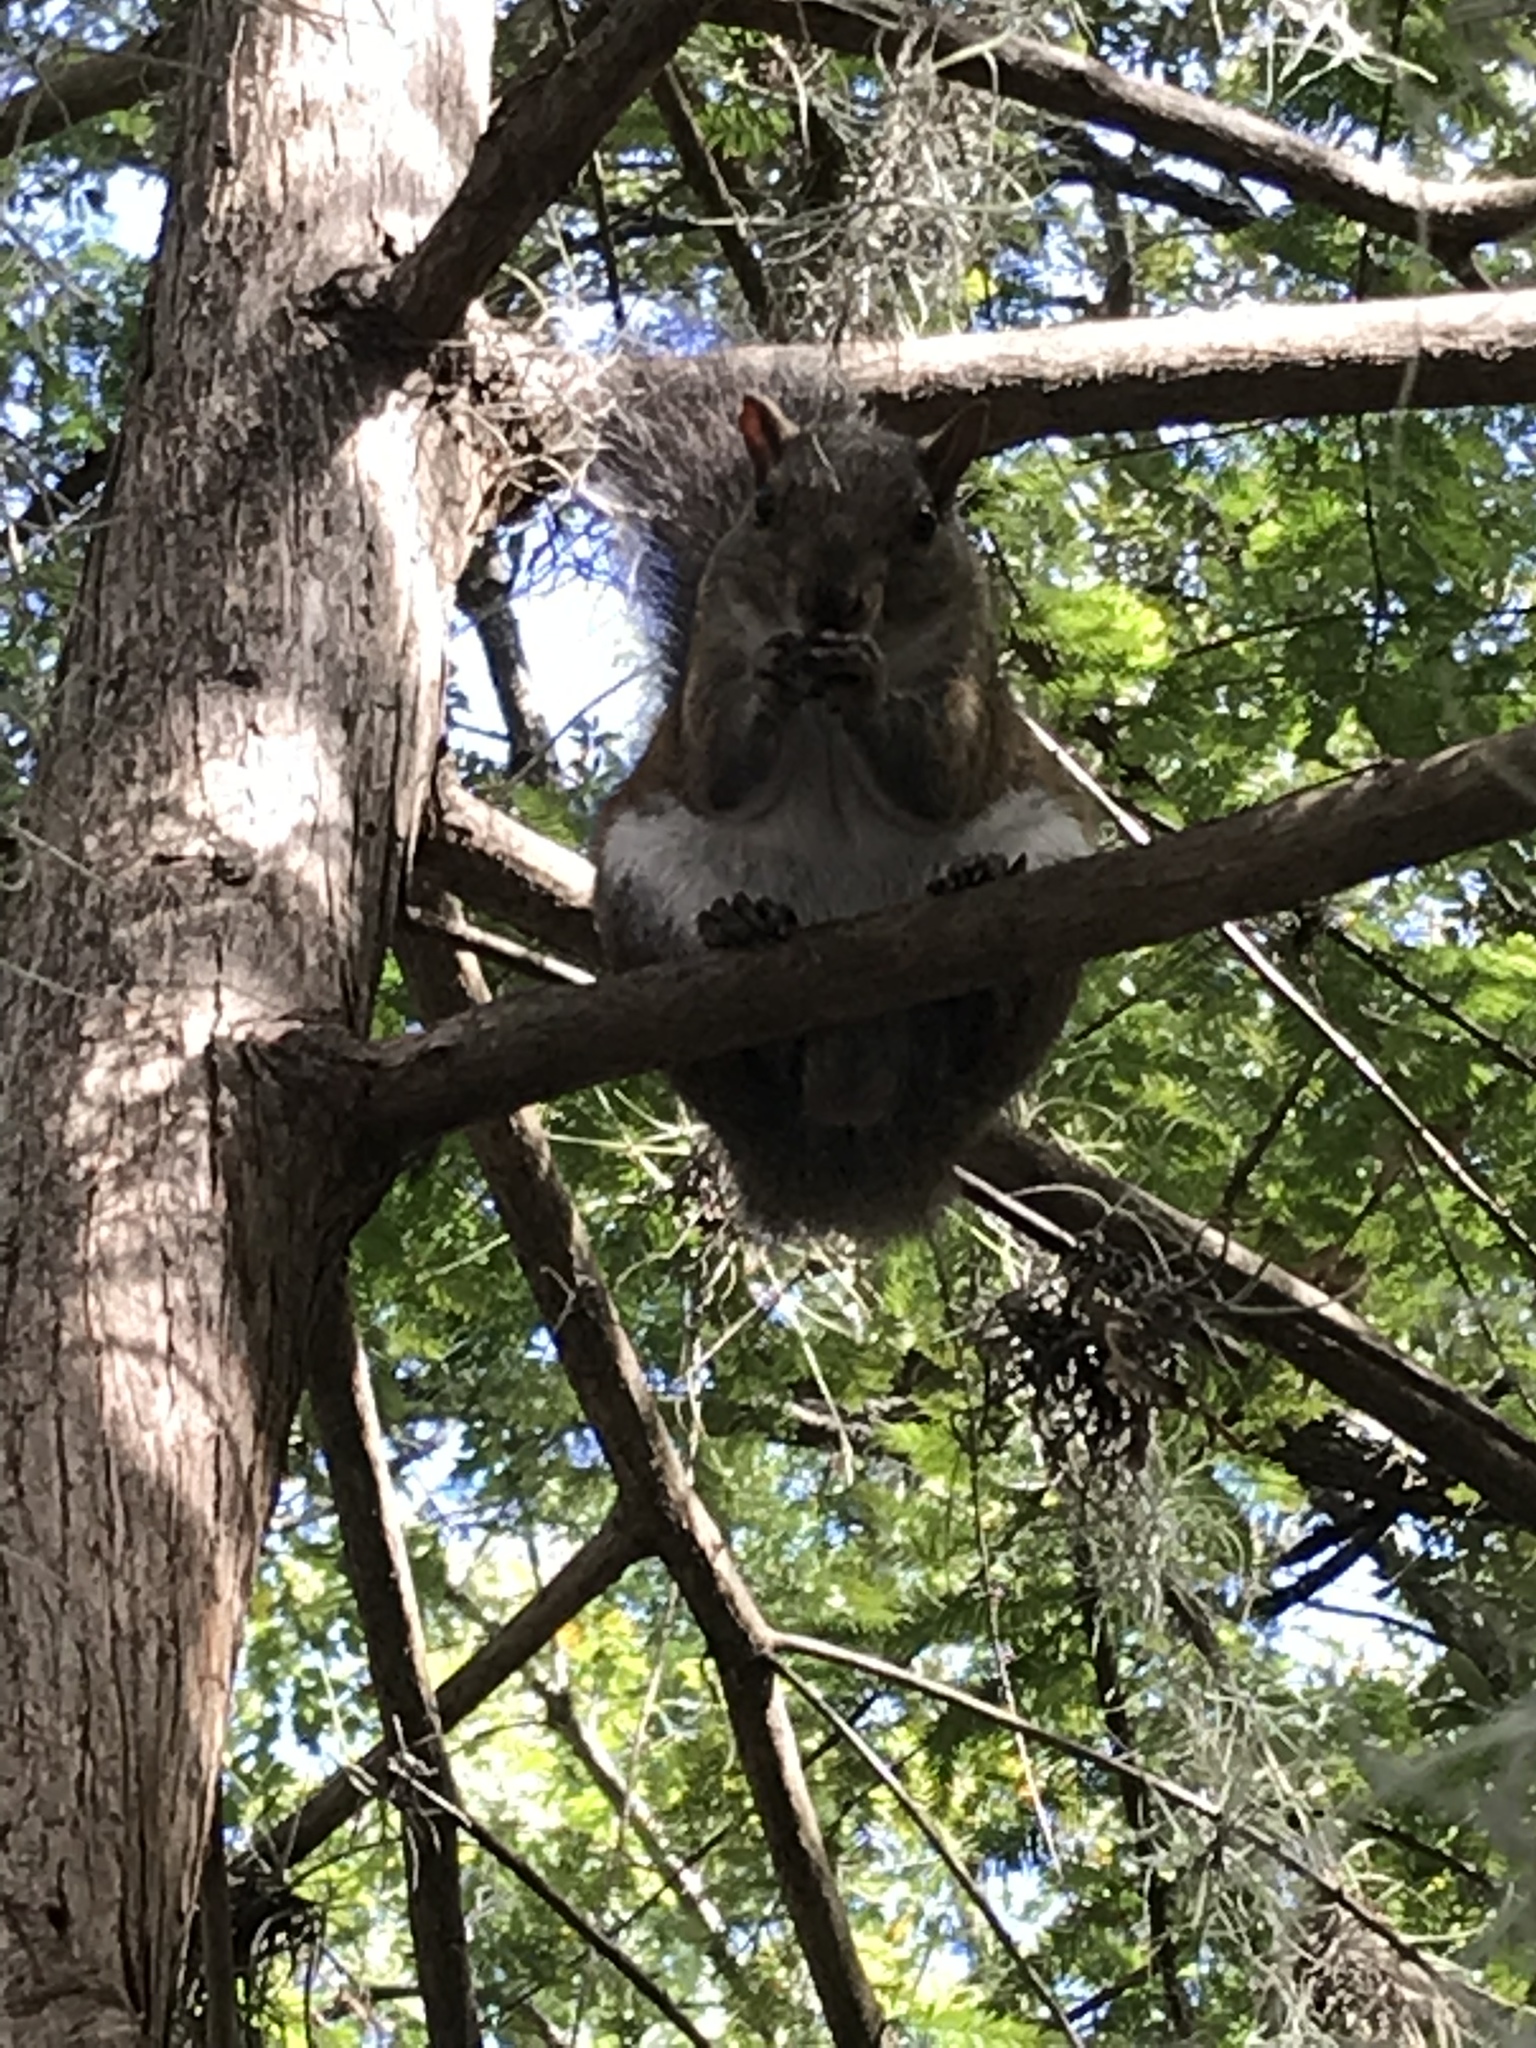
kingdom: Animalia
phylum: Chordata
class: Mammalia
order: Rodentia
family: Sciuridae
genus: Sciurus
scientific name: Sciurus carolinensis
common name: Eastern gray squirrel
